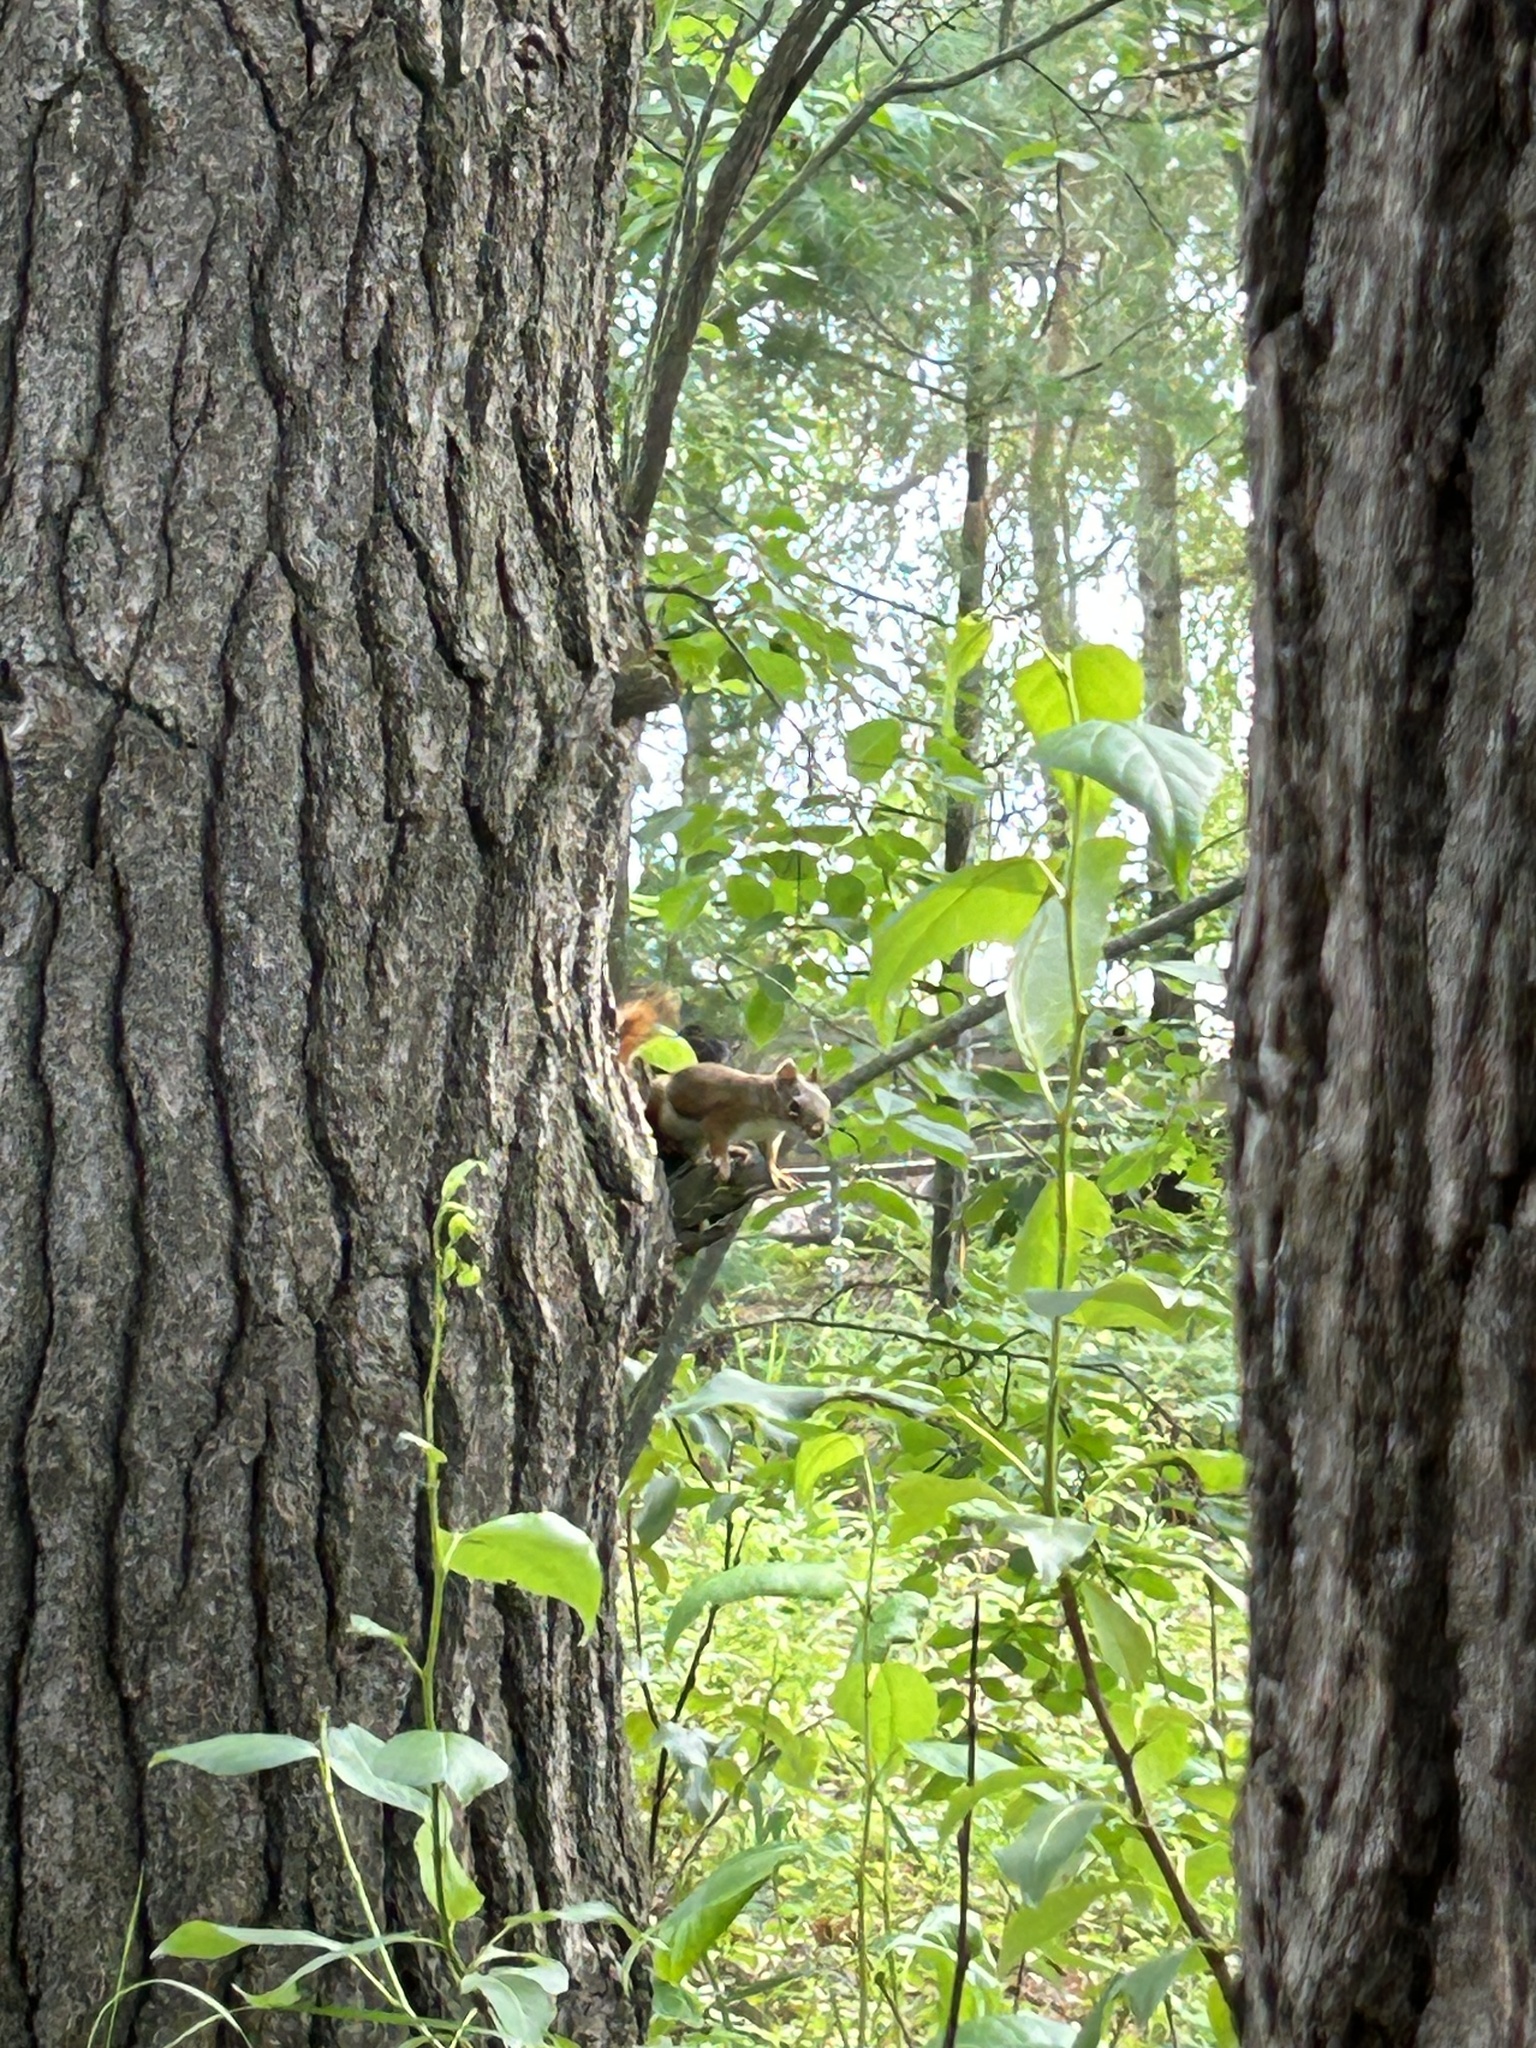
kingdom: Animalia
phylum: Chordata
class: Mammalia
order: Rodentia
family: Sciuridae
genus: Tamiasciurus
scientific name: Tamiasciurus hudsonicus
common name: Red squirrel
